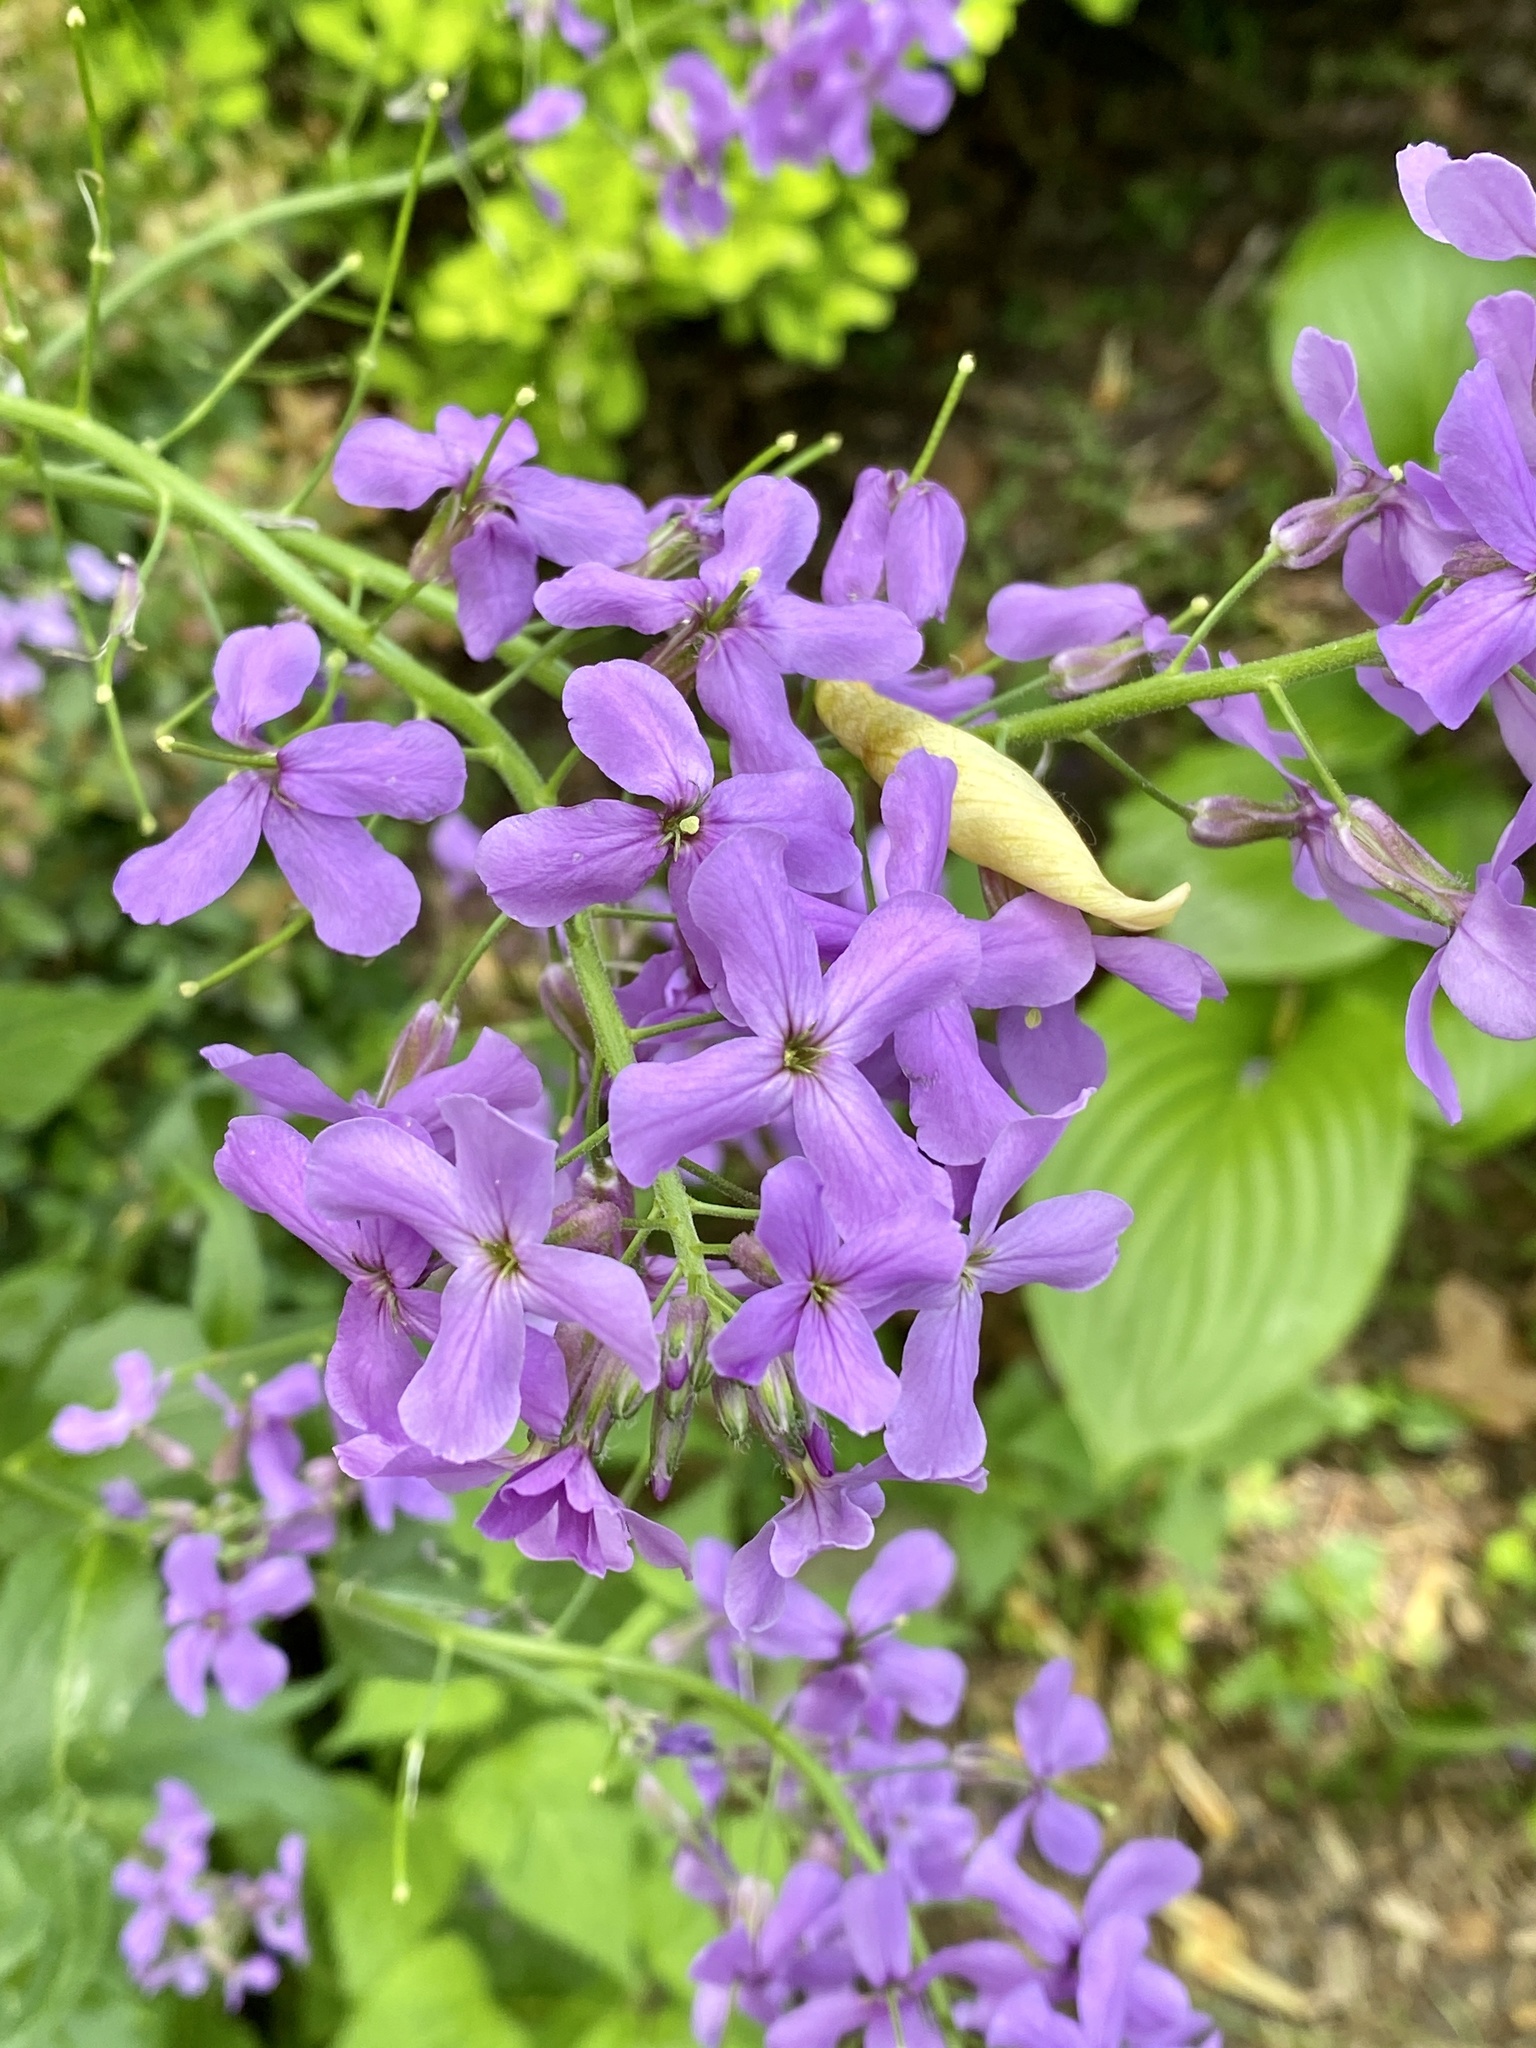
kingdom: Plantae
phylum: Tracheophyta
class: Magnoliopsida
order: Brassicales
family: Brassicaceae
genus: Hesperis
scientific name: Hesperis matronalis
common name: Dame's-violet
